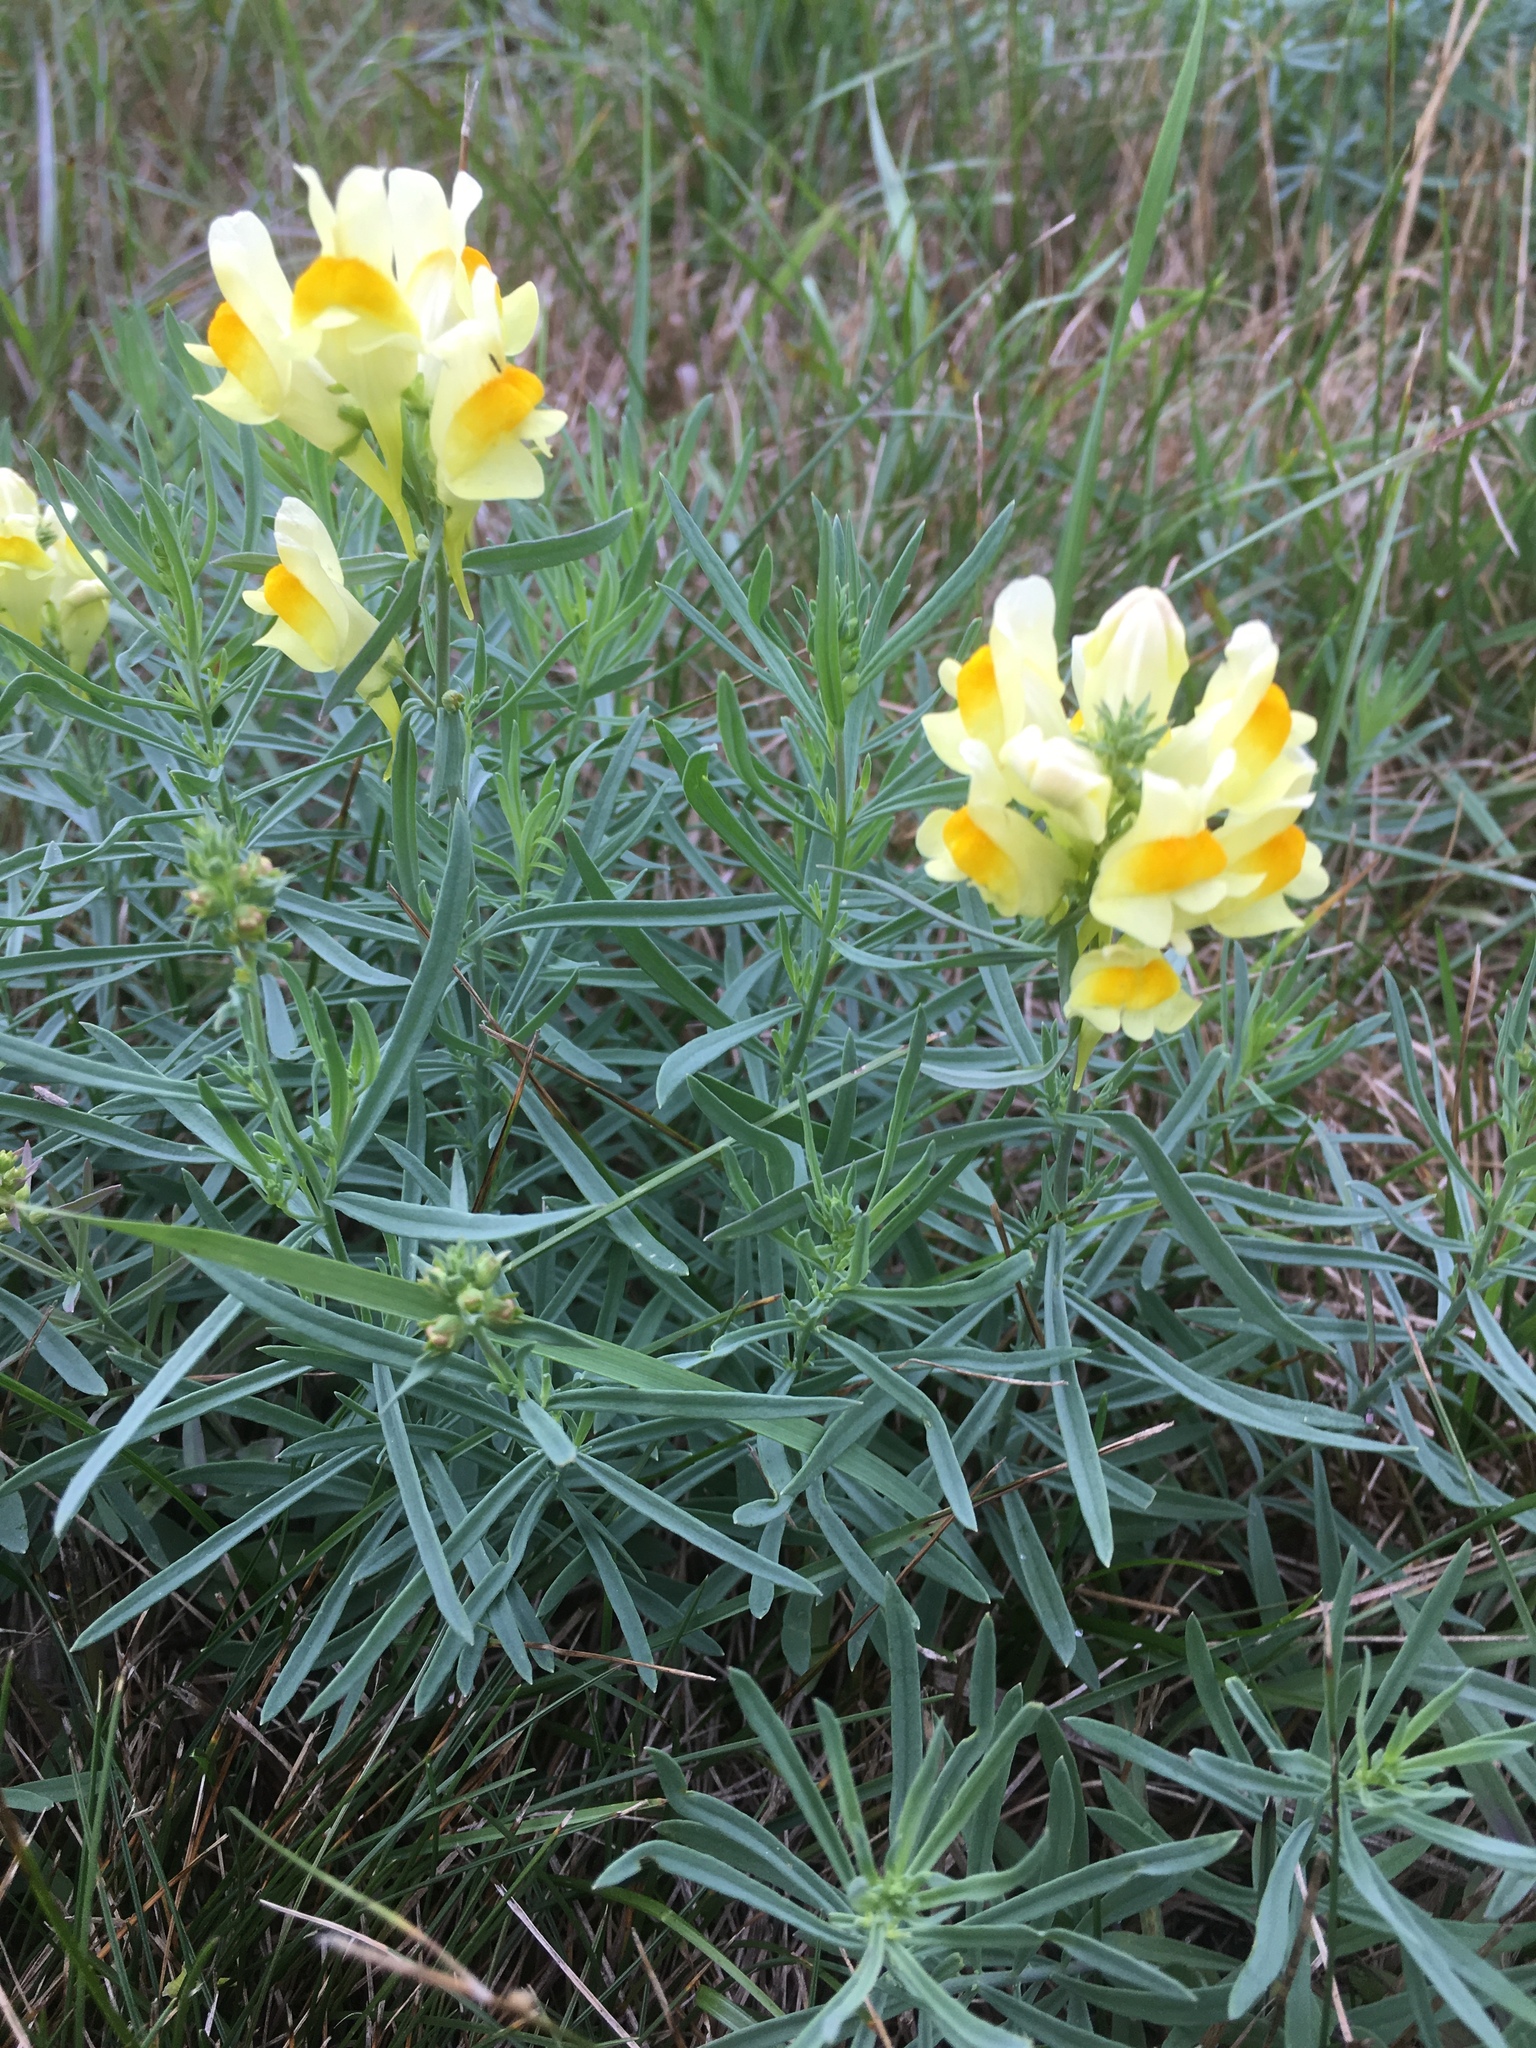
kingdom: Plantae
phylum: Tracheophyta
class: Magnoliopsida
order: Lamiales
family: Plantaginaceae
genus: Linaria
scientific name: Linaria vulgaris
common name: Butter and eggs
